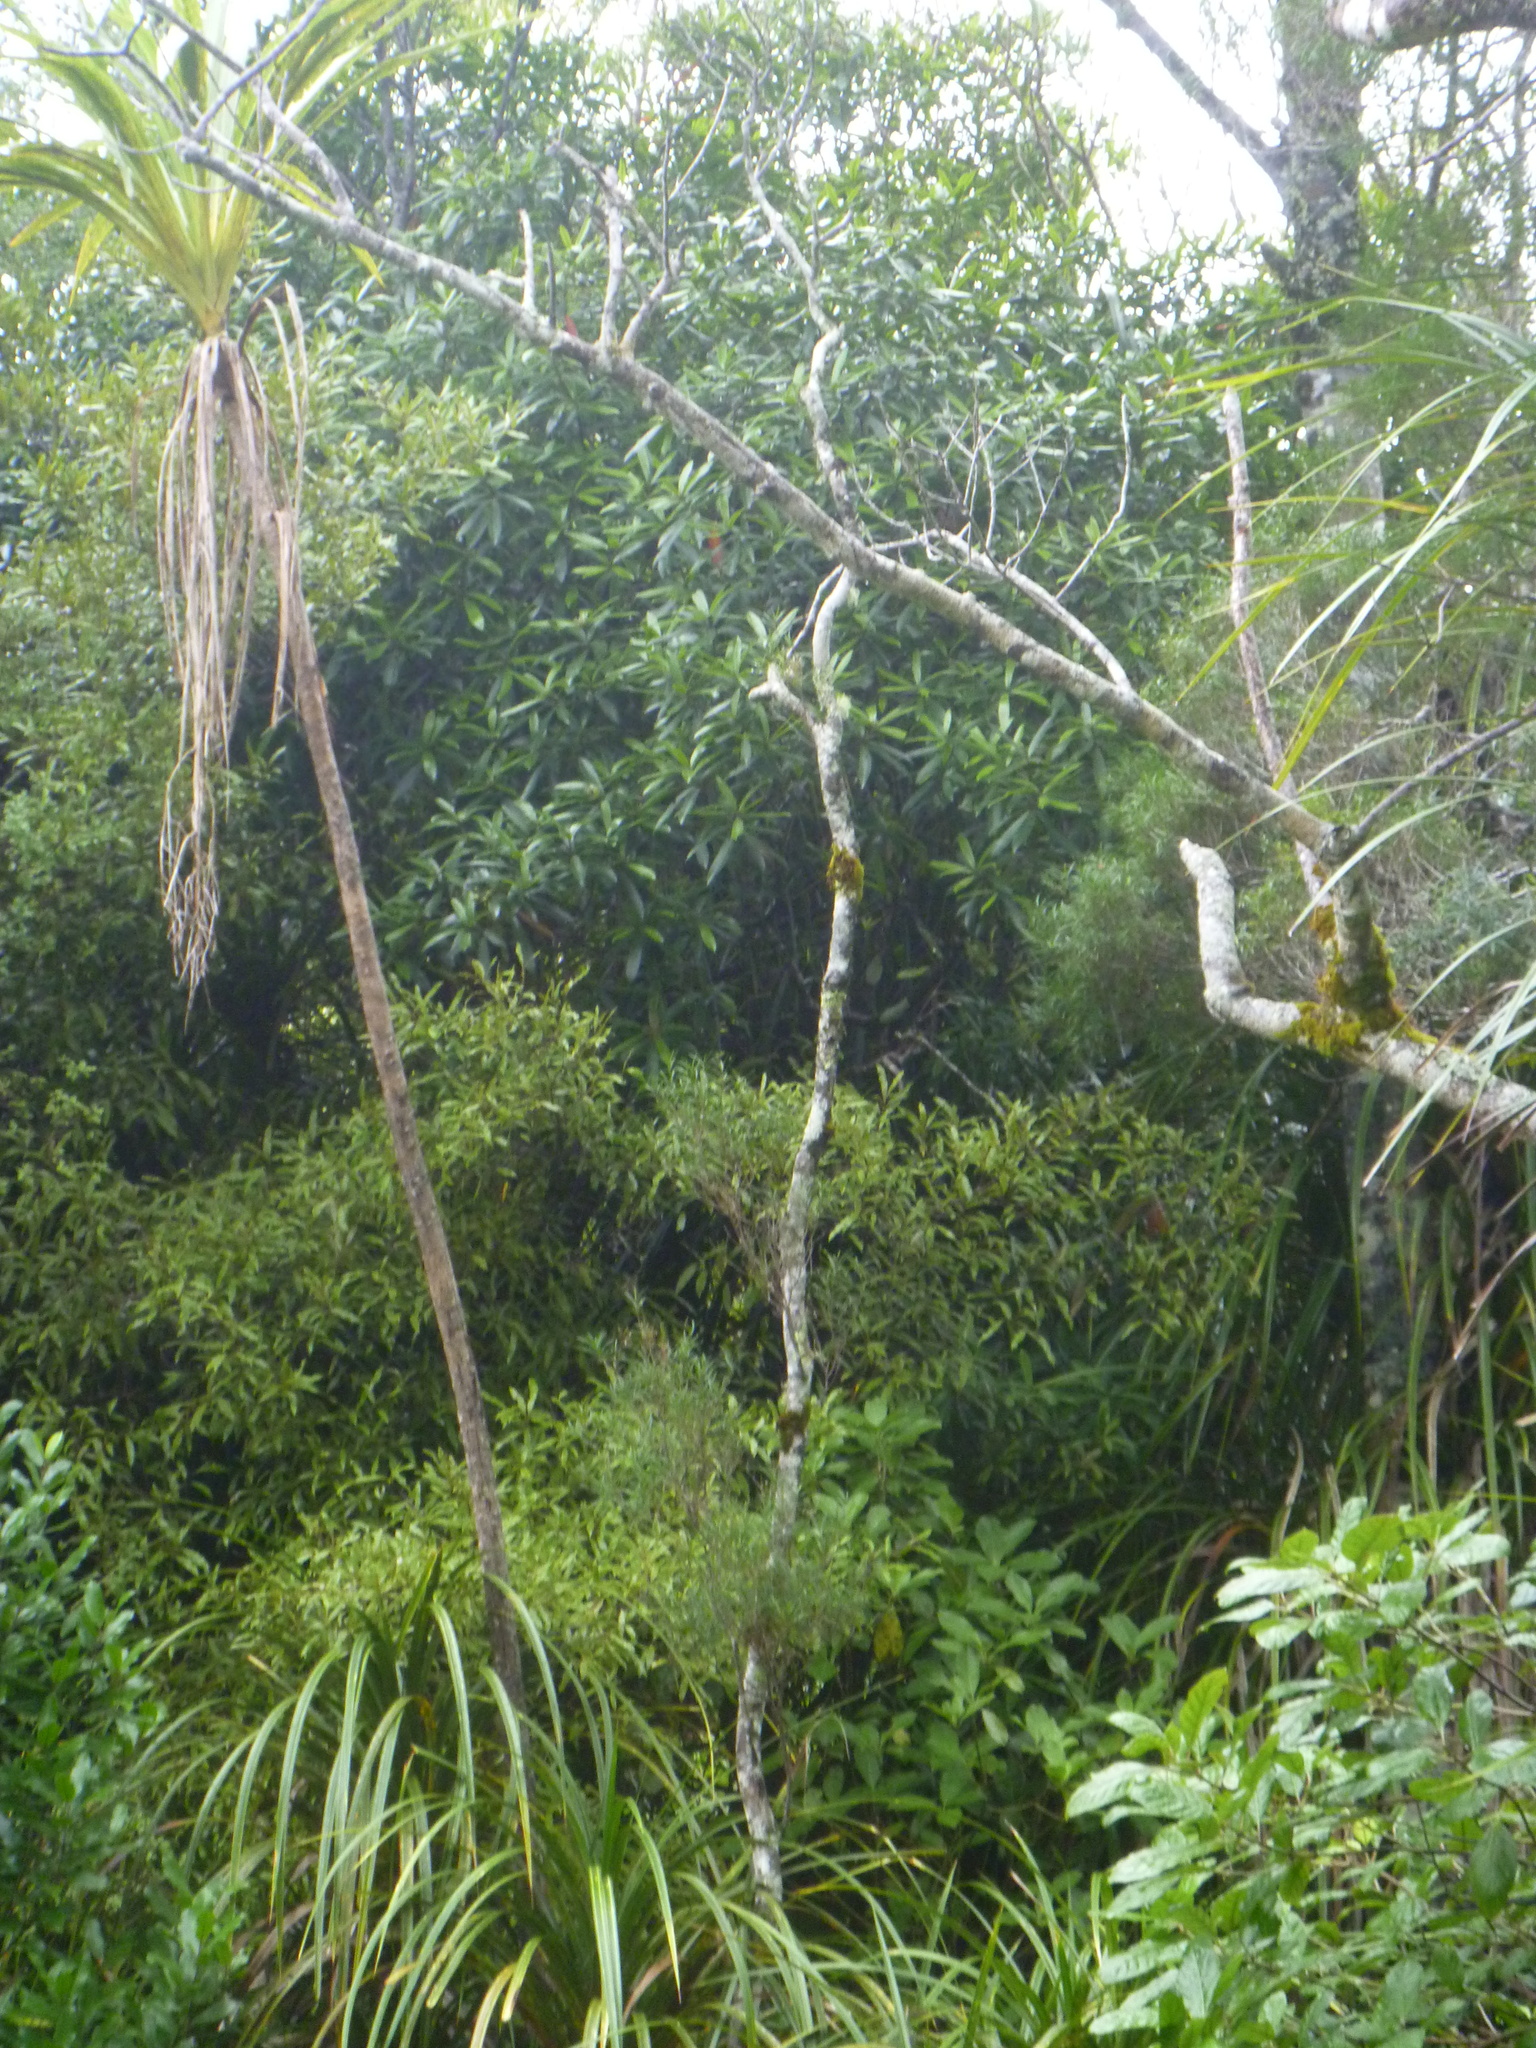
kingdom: Plantae
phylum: Tracheophyta
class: Magnoliopsida
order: Lamiales
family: Oleaceae
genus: Nestegis
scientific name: Nestegis montana
